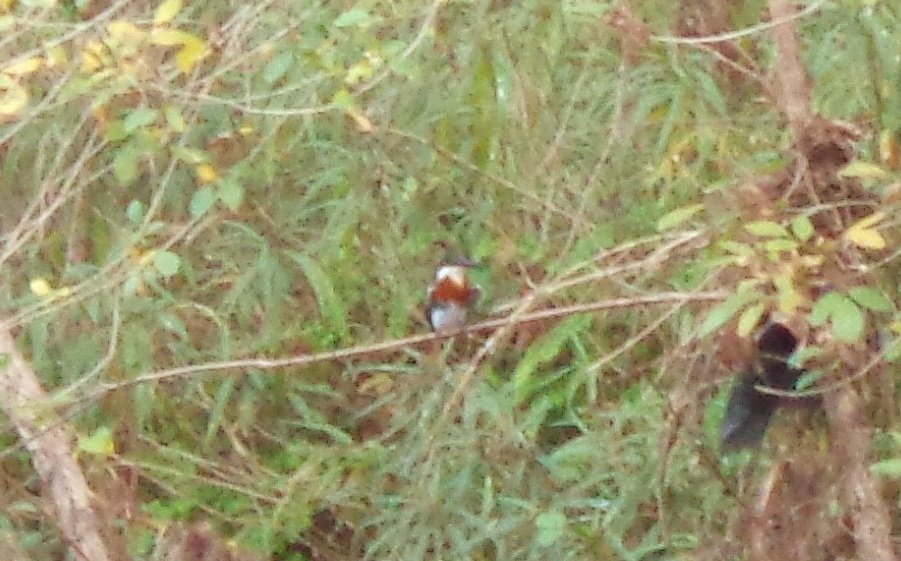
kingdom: Animalia
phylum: Chordata
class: Aves
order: Coraciiformes
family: Alcedinidae
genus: Chloroceryle
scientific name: Chloroceryle americana
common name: Green kingfisher
